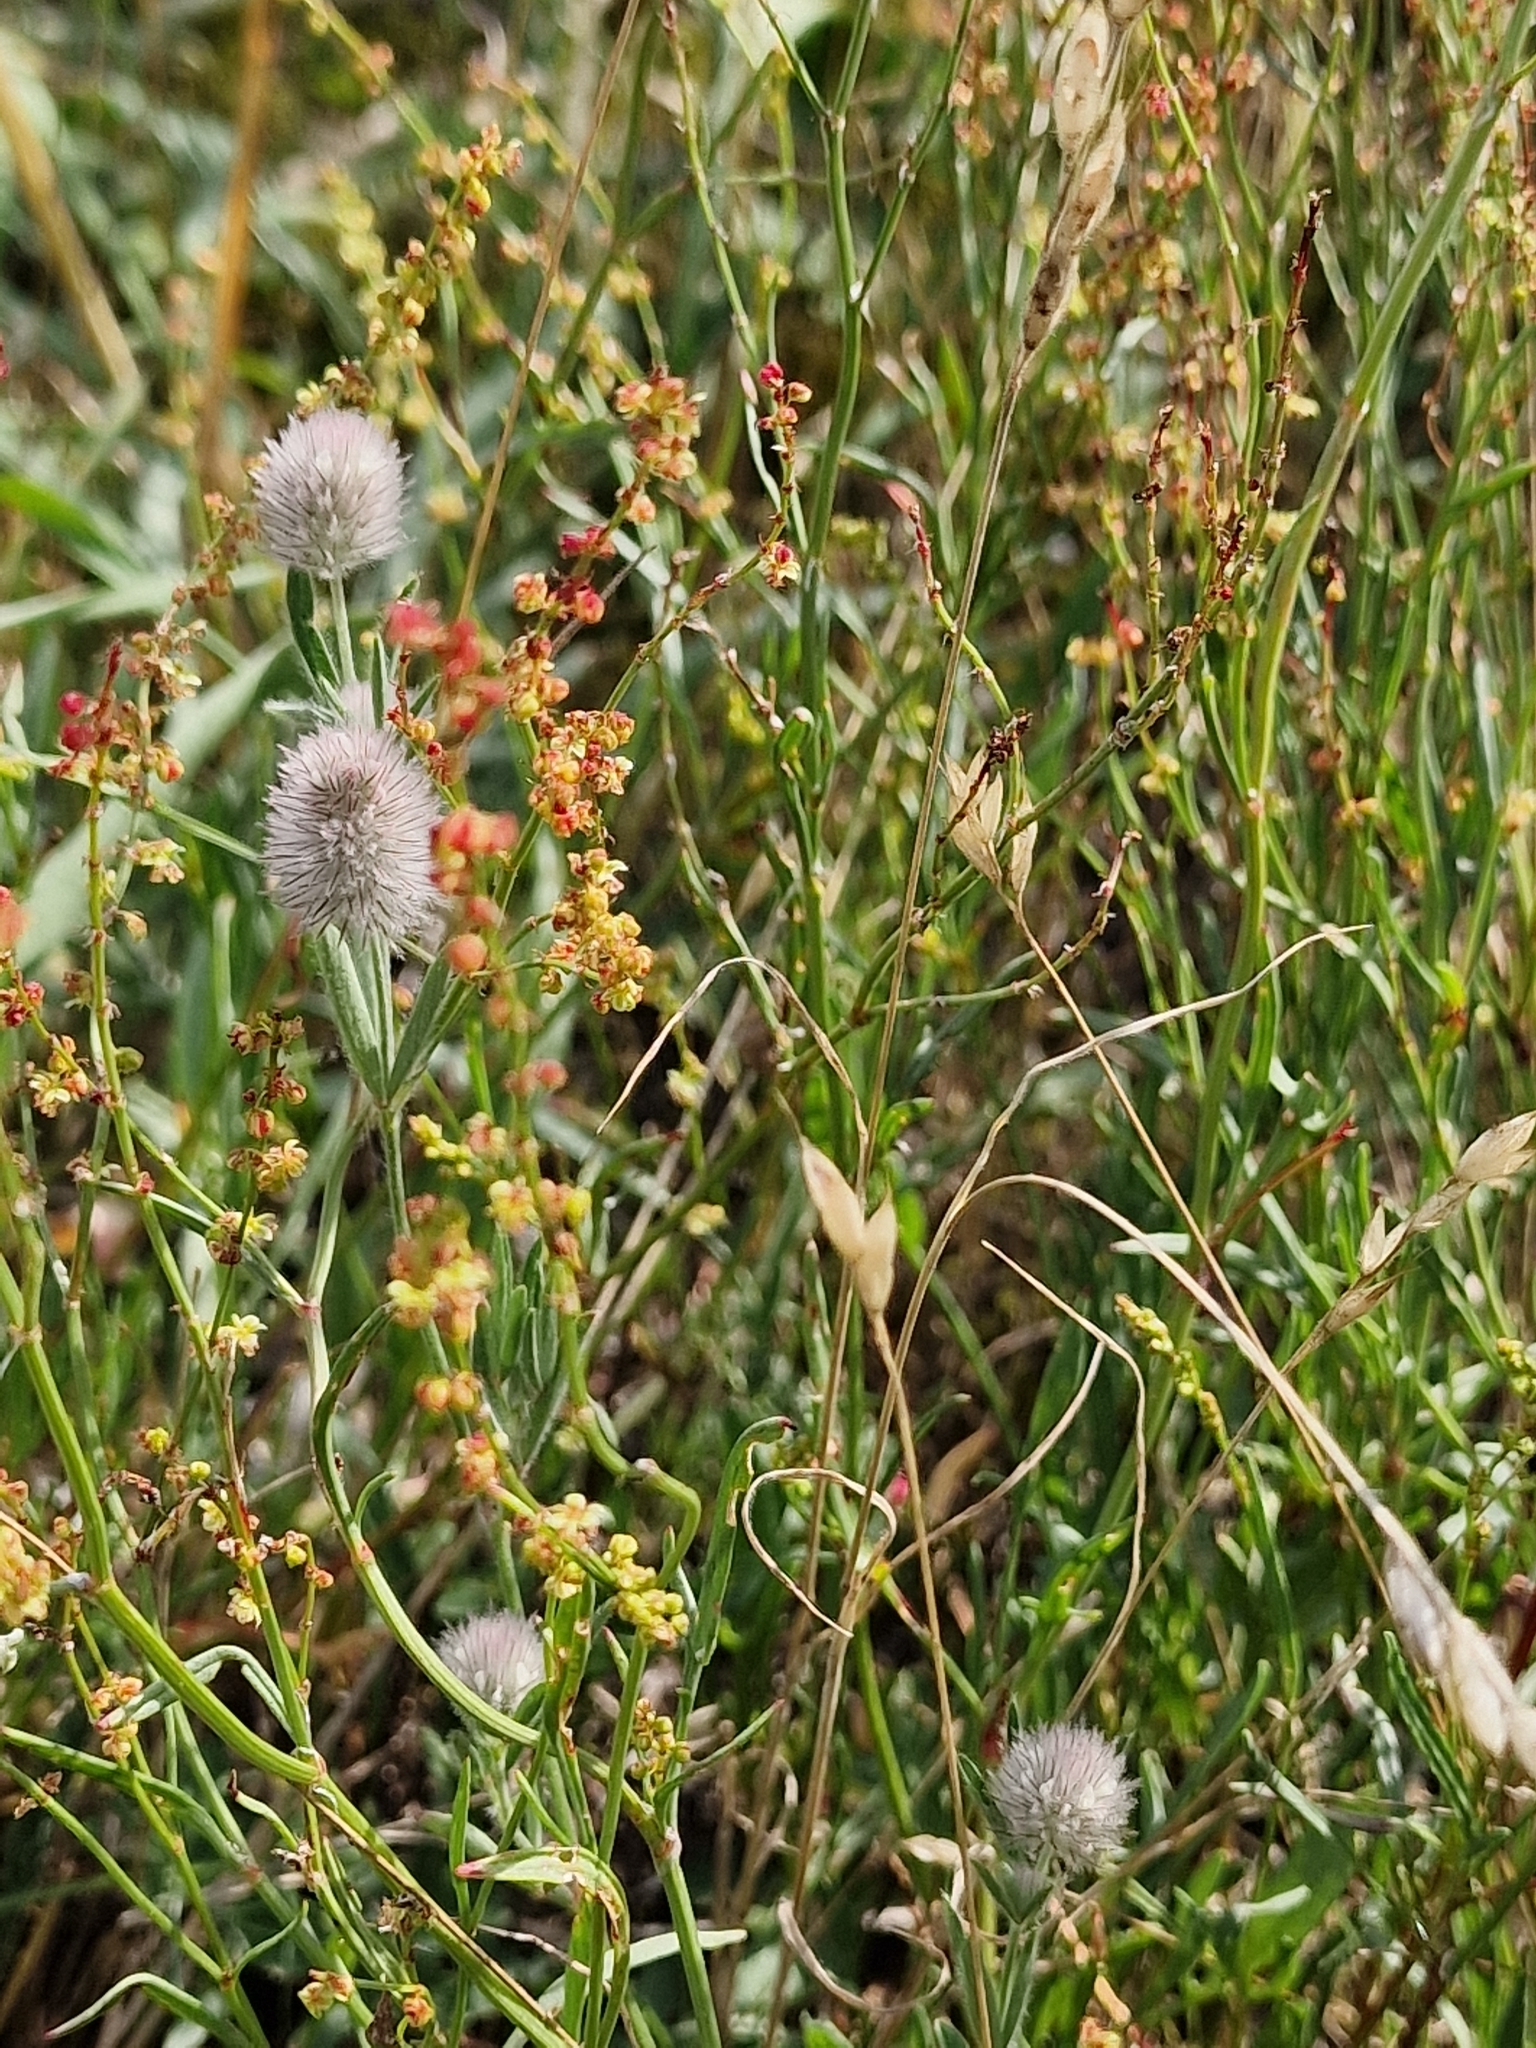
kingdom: Plantae
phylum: Tracheophyta
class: Magnoliopsida
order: Fabales
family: Fabaceae
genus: Trifolium
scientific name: Trifolium arvense
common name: Hare's-foot clover
